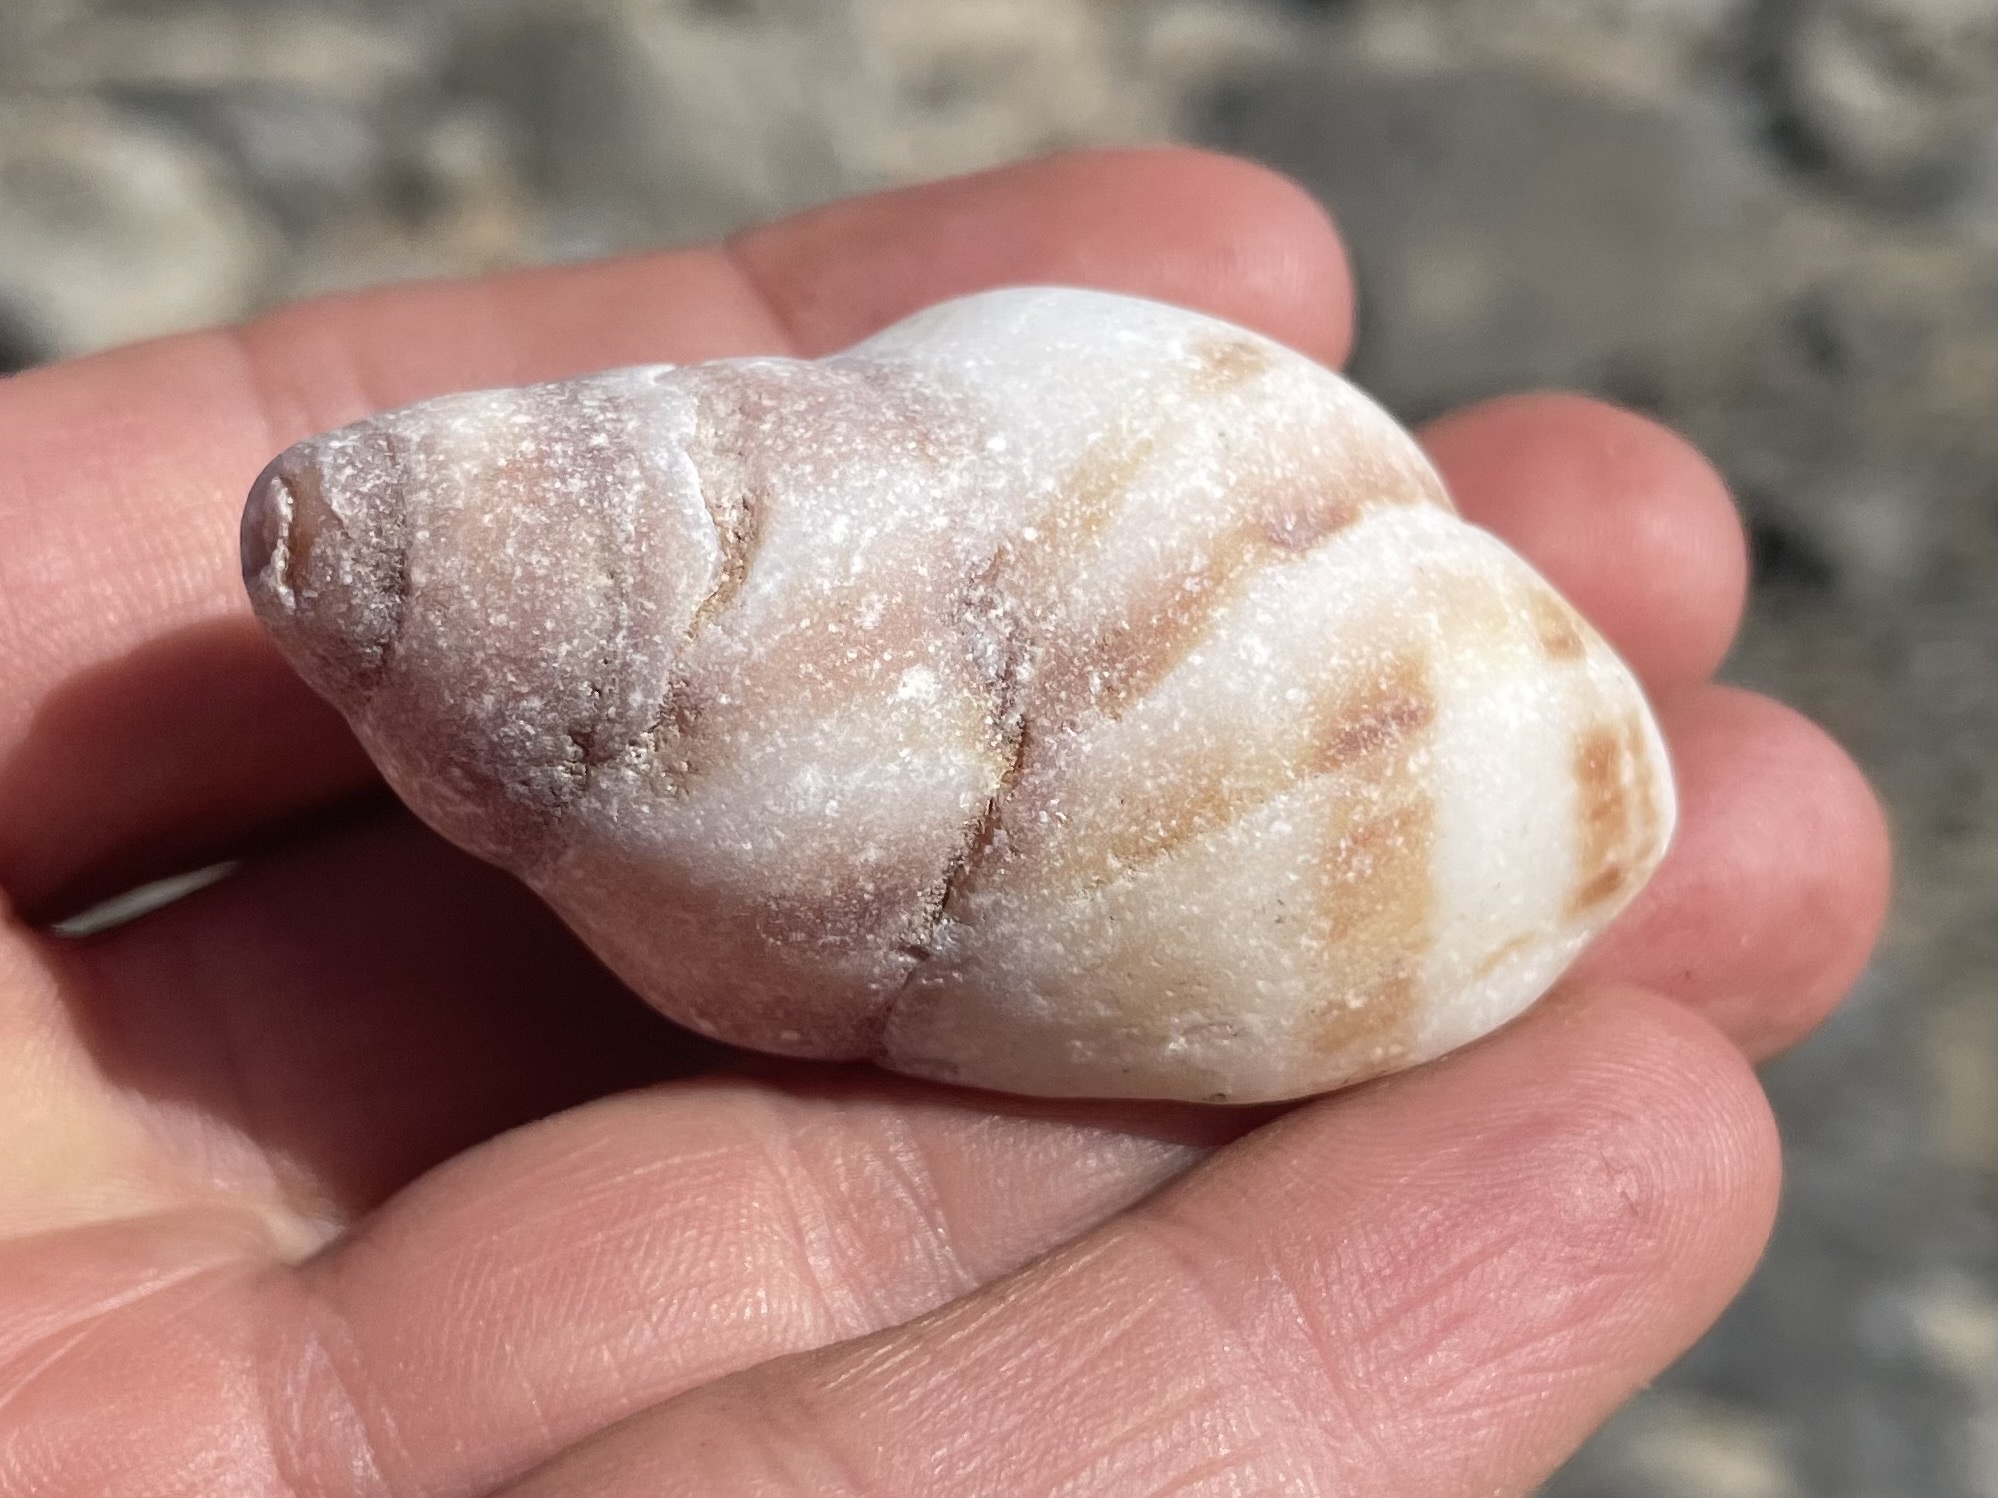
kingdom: Animalia
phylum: Mollusca
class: Gastropoda
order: Neogastropoda
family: Muricidae
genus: Nucella
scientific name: Nucella lamellosa
